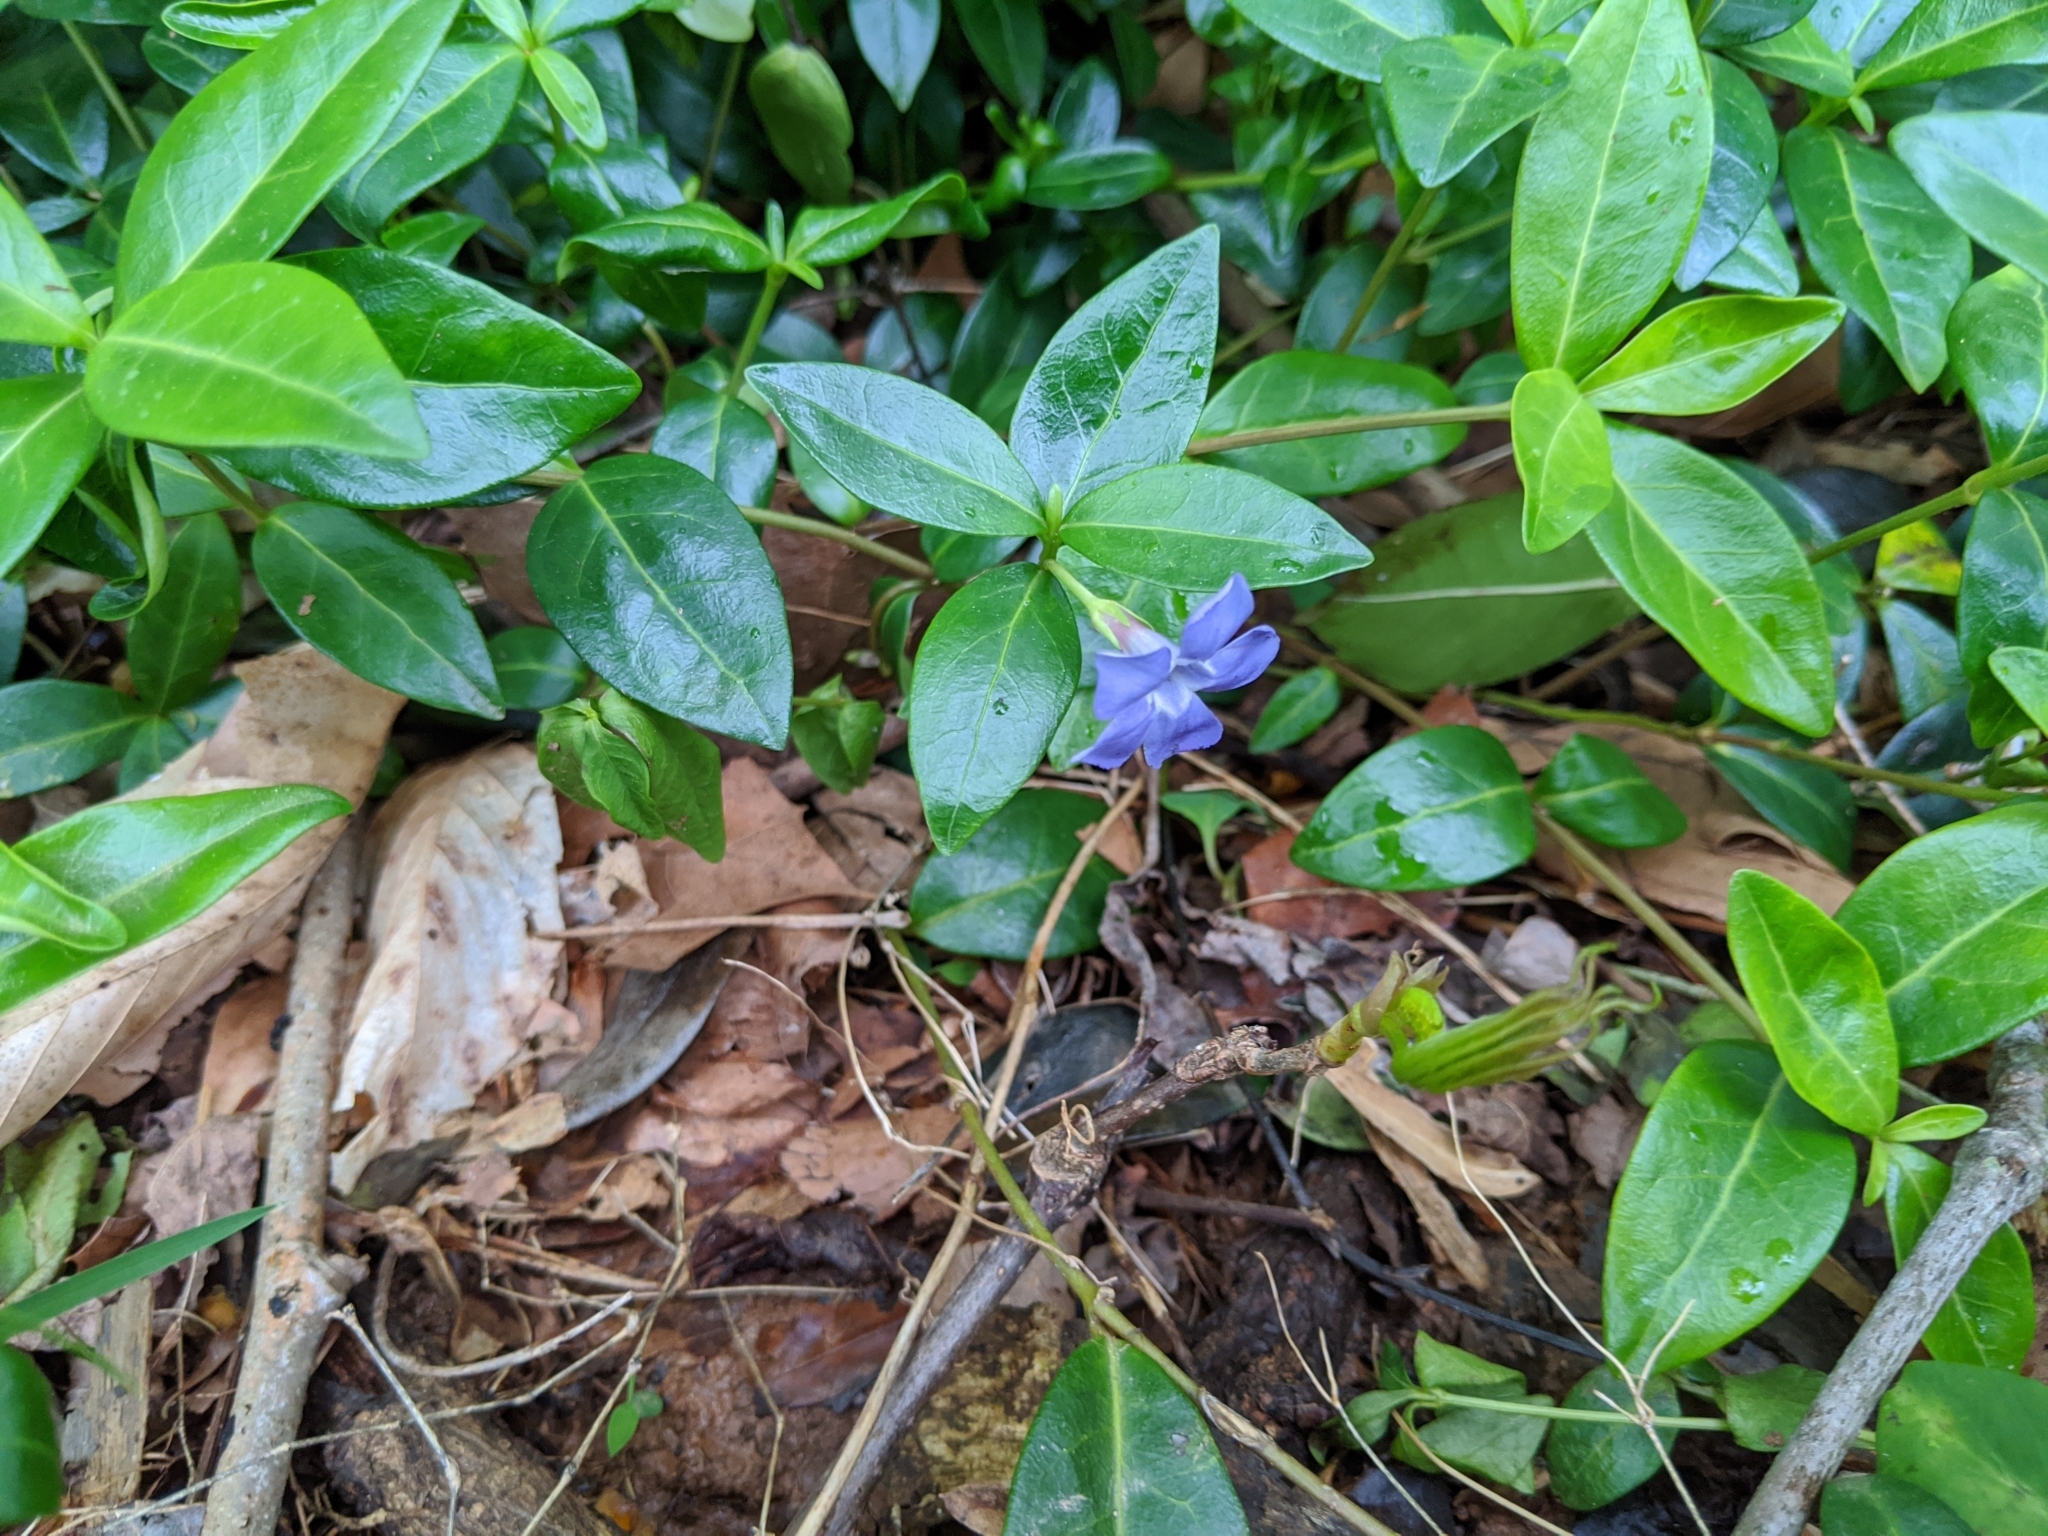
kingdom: Plantae
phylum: Tracheophyta
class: Magnoliopsida
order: Gentianales
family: Apocynaceae
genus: Vinca
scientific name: Vinca minor
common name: Lesser periwinkle
